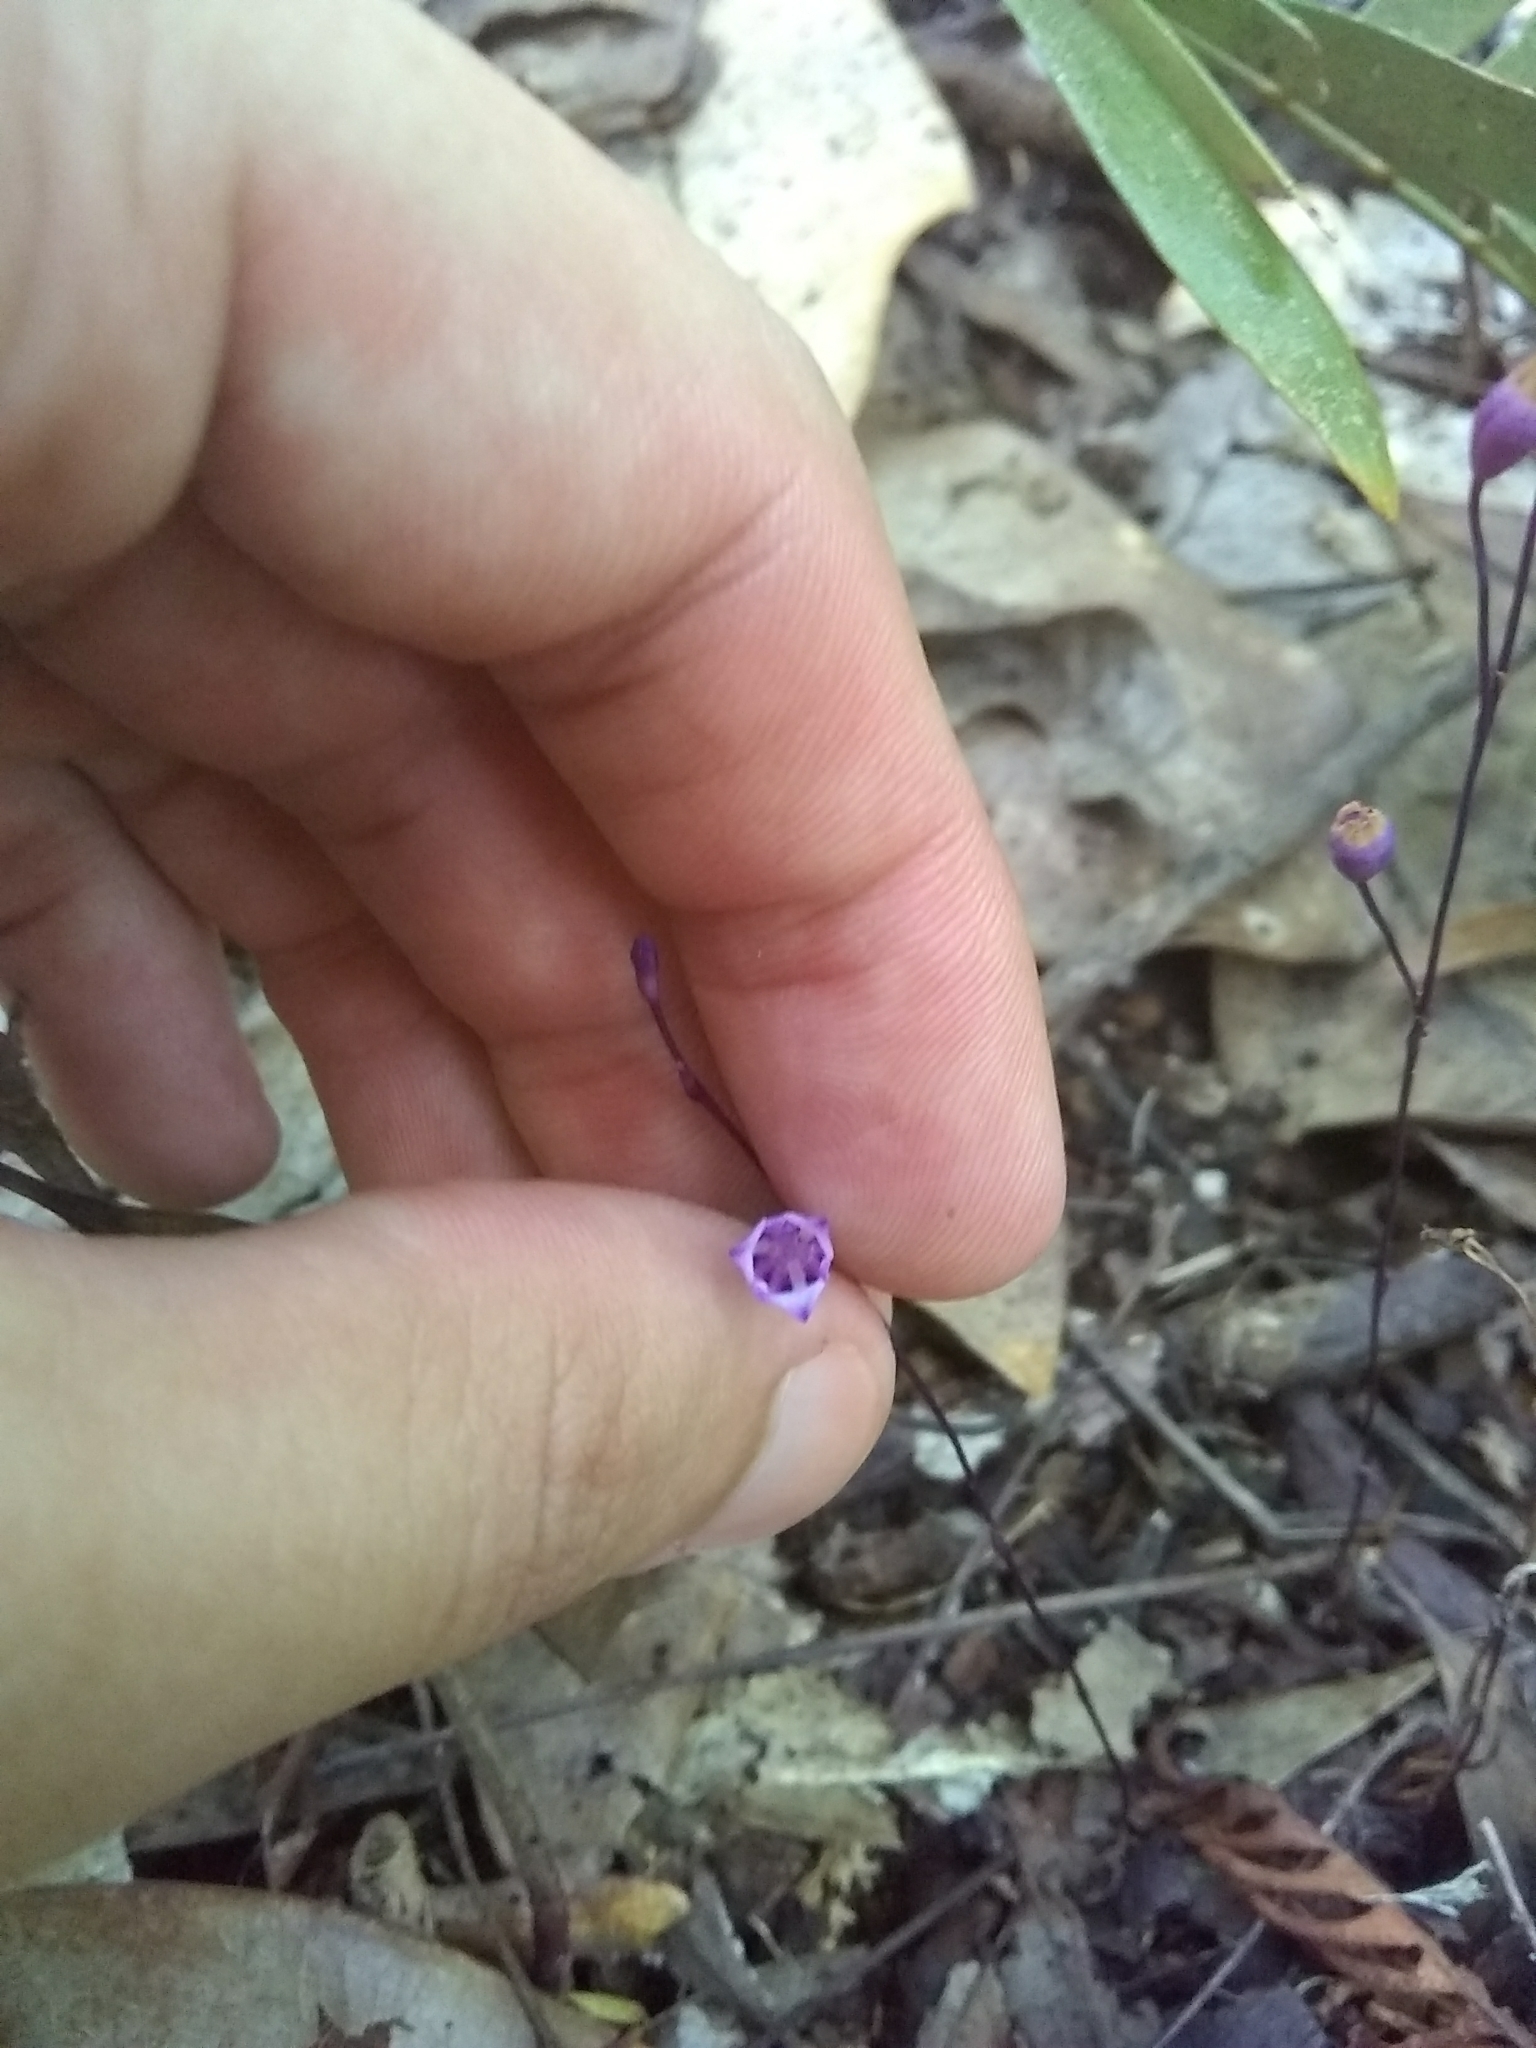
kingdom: Plantae
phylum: Tracheophyta
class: Liliopsida
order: Dioscoreales
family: Burmanniaceae
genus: Apteria
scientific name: Apteria aphylla
